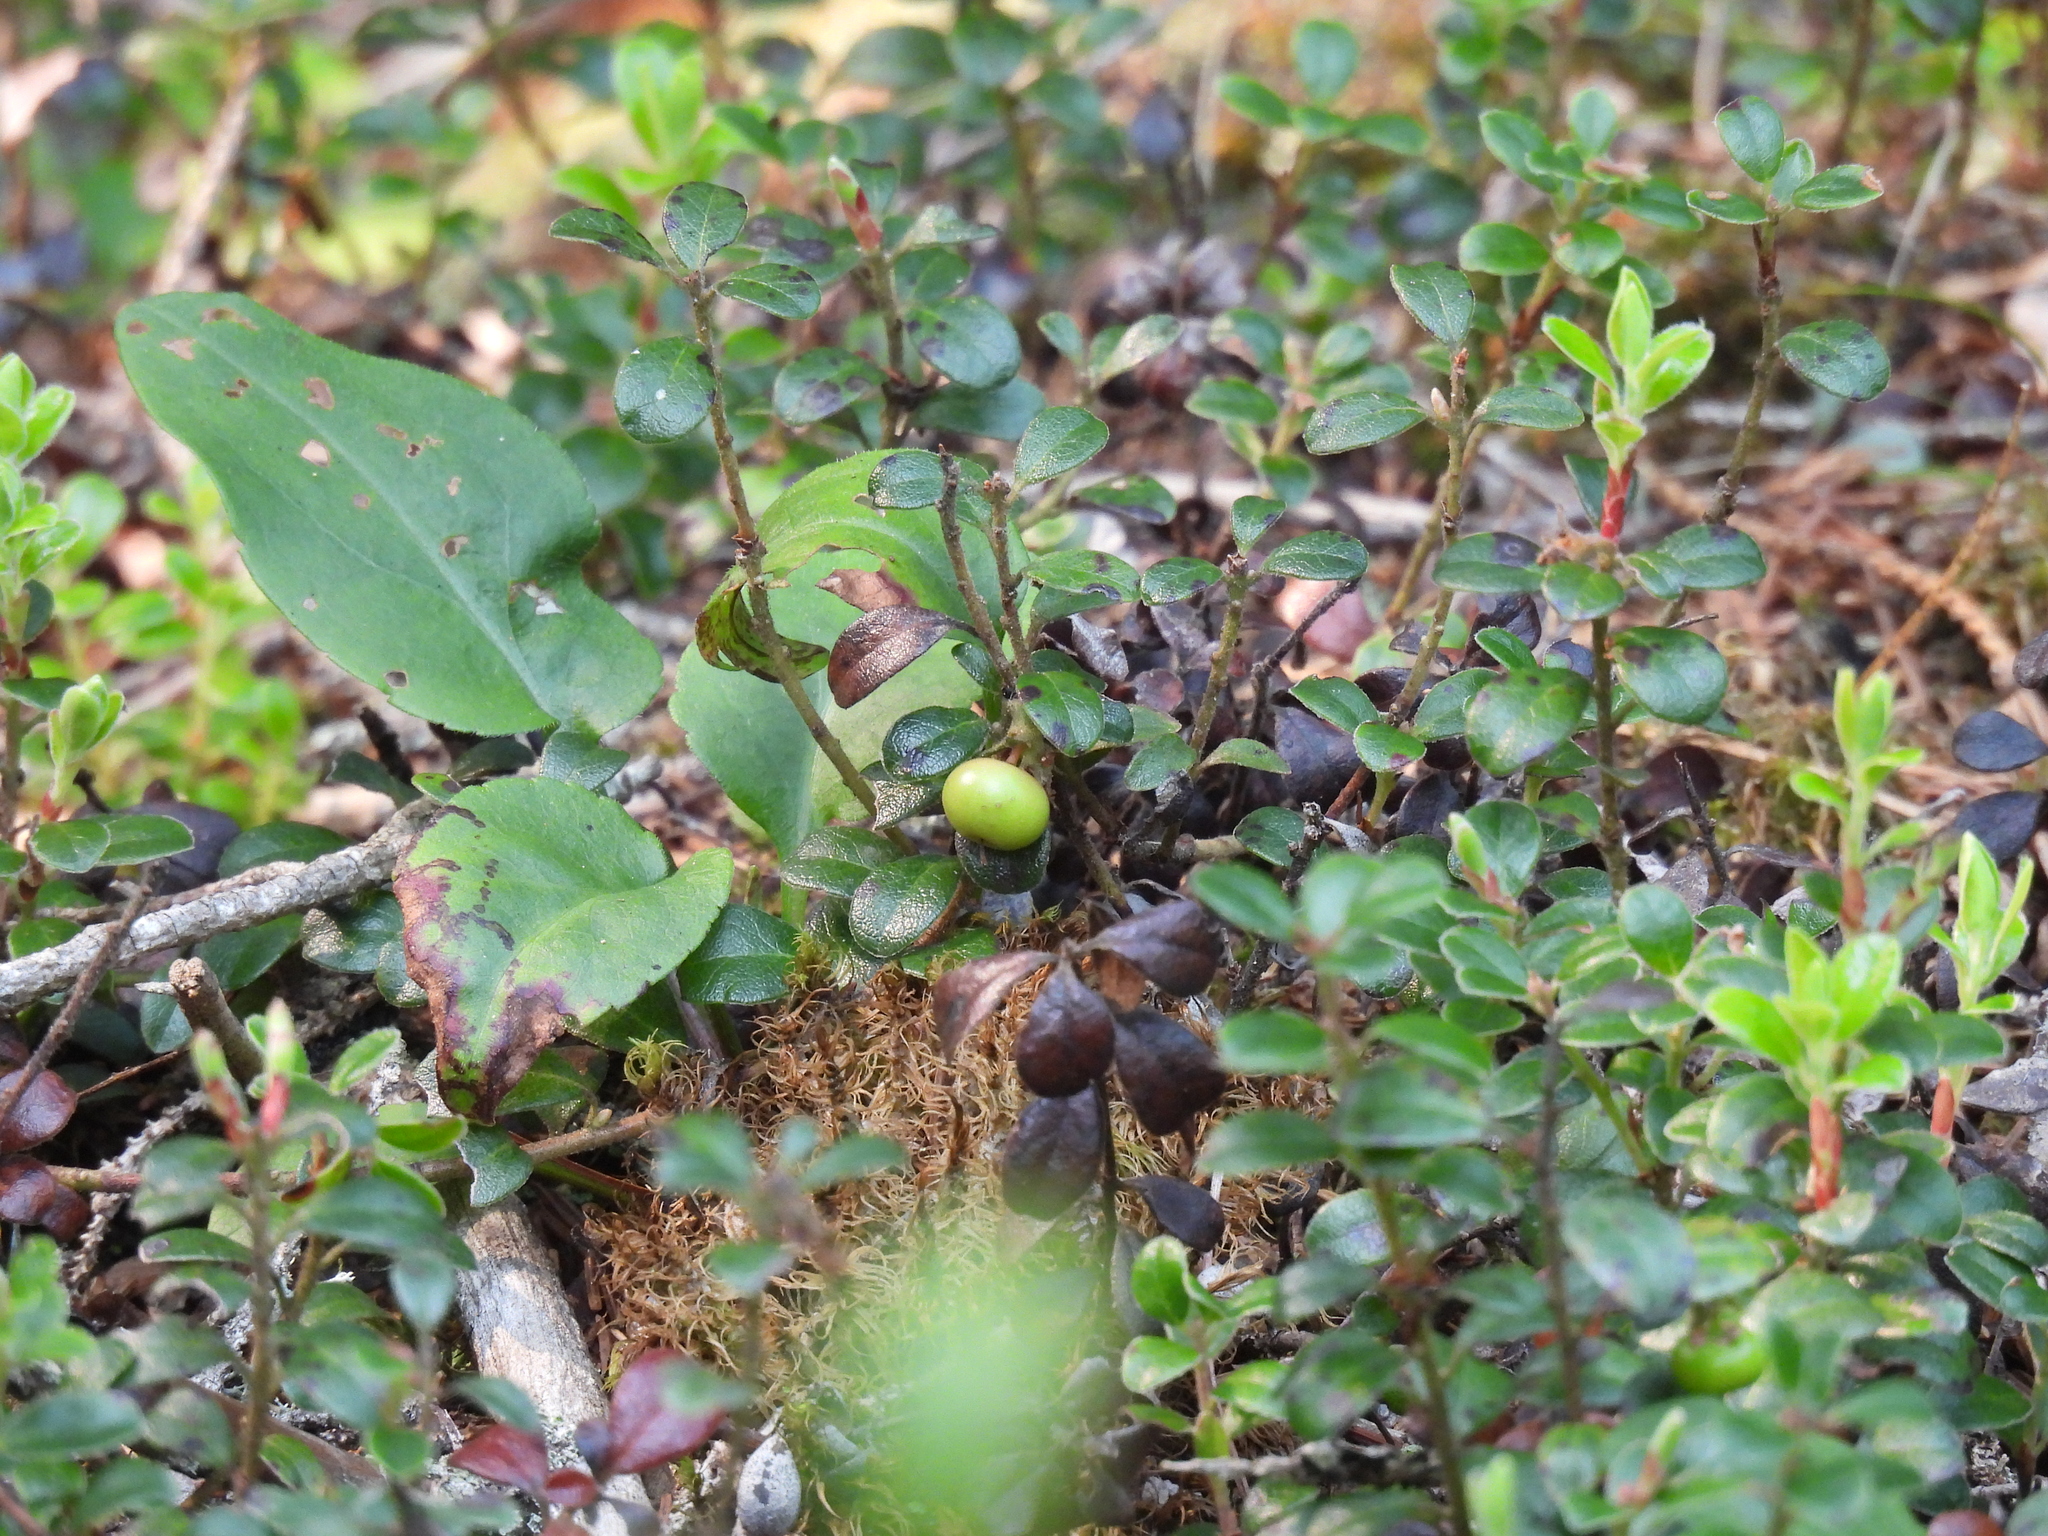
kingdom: Plantae
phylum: Tracheophyta
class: Magnoliopsida
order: Ericales
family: Ericaceae
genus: Arctostaphylos
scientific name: Arctostaphylos uva-ursi
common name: Bearberry
